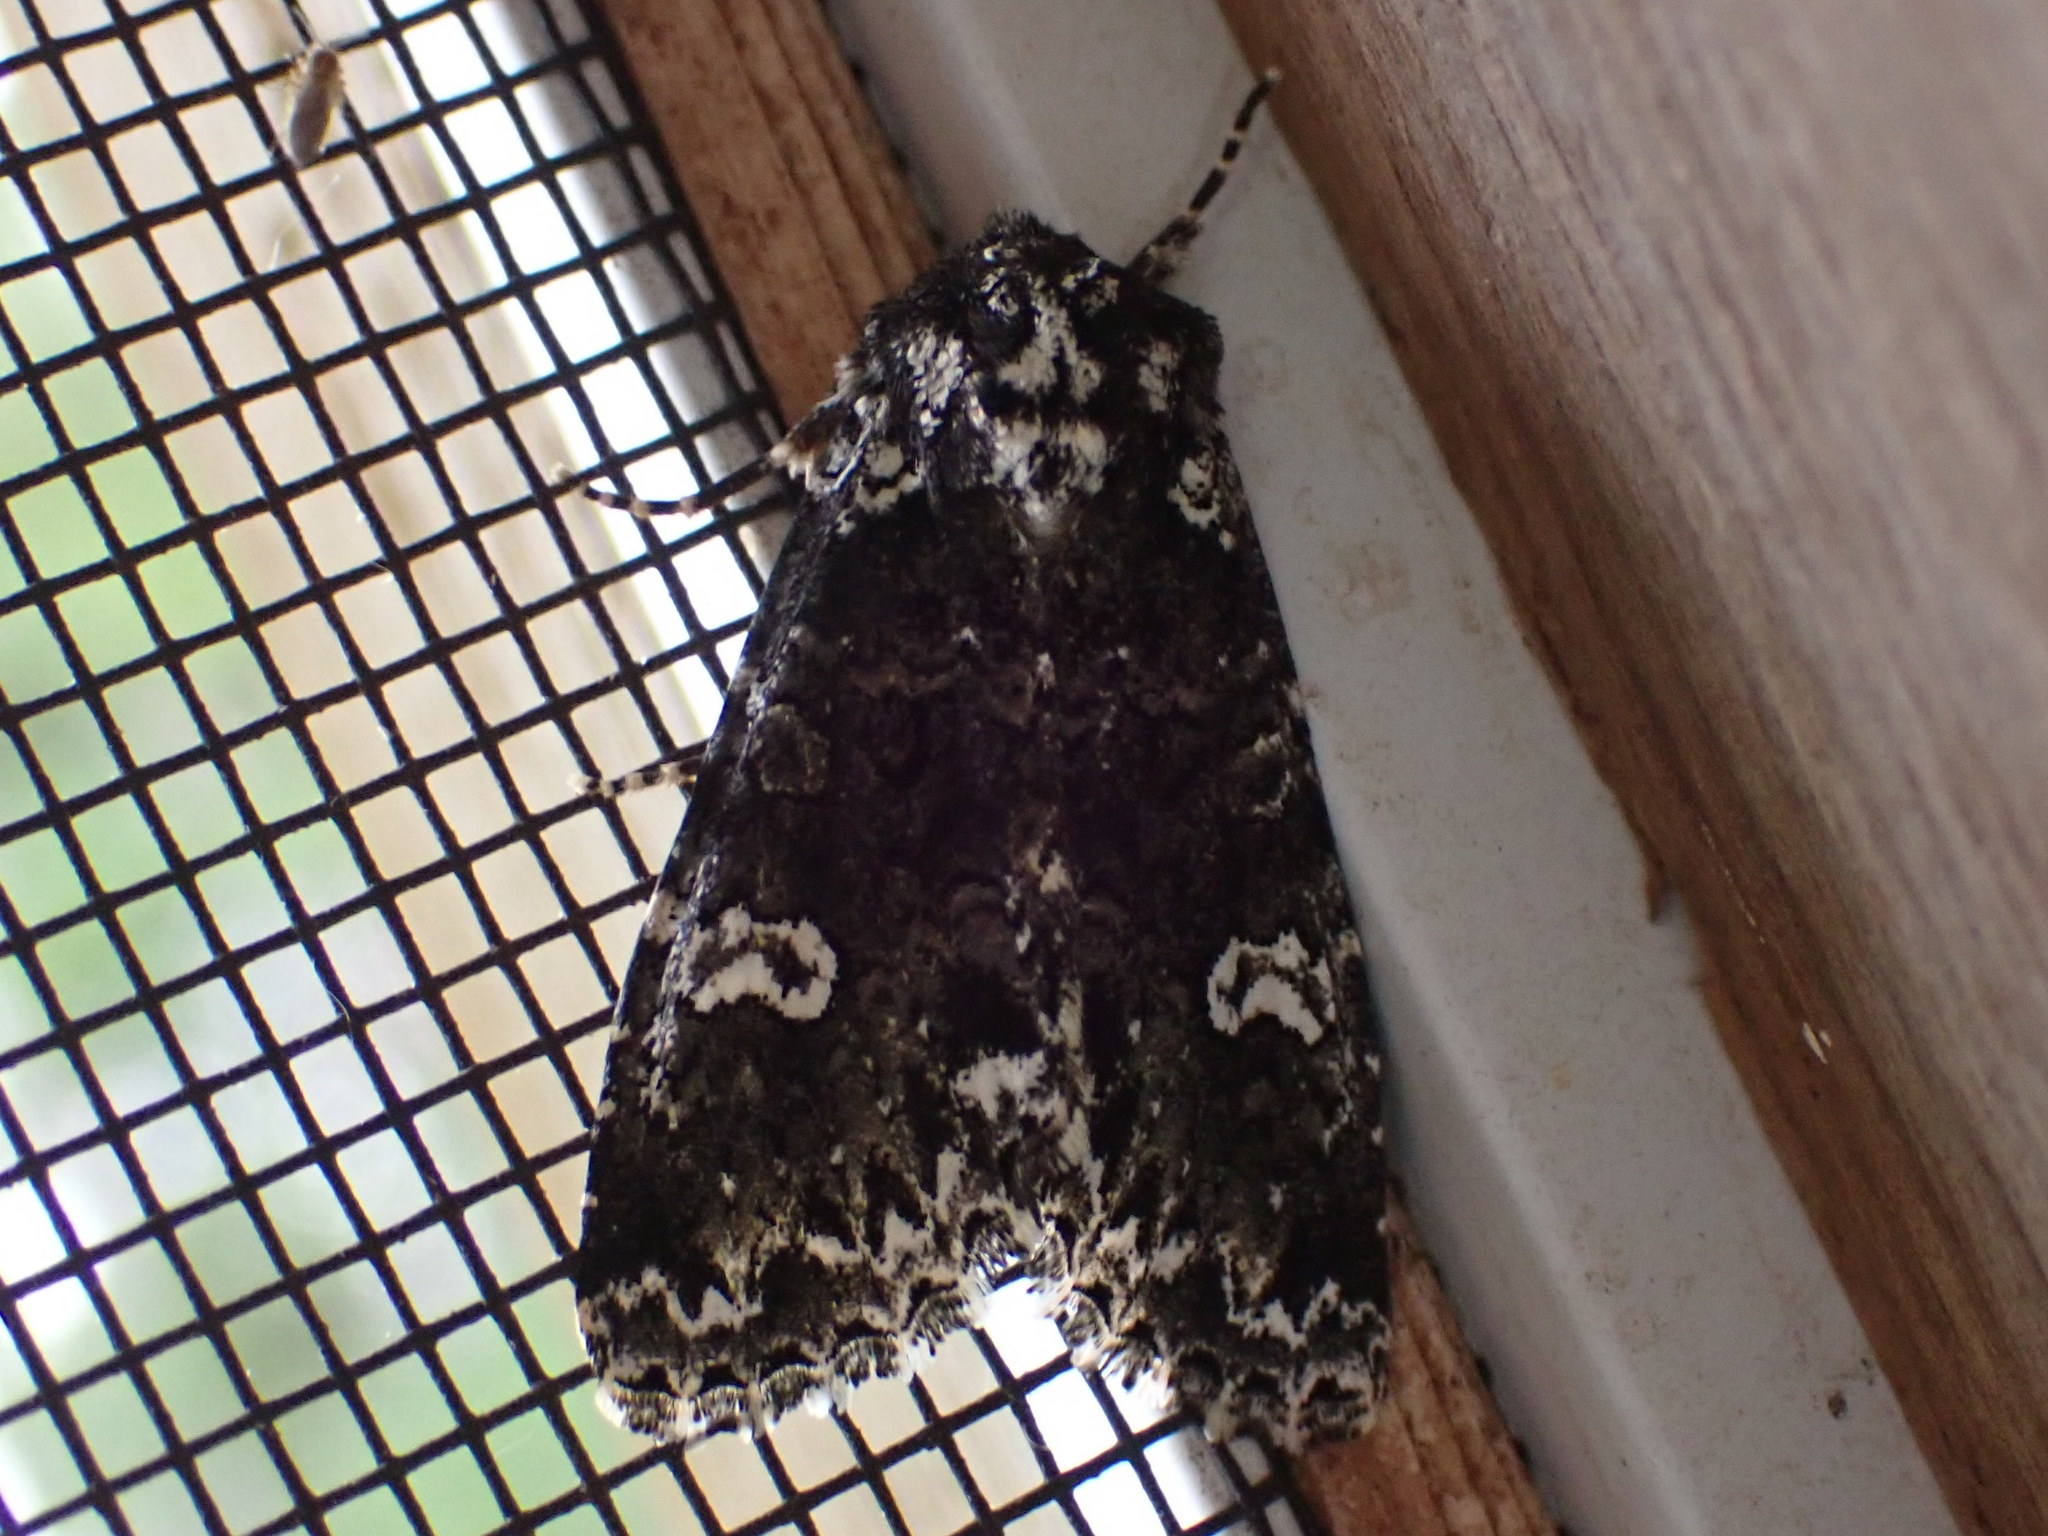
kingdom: Animalia
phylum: Arthropoda
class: Insecta
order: Lepidoptera
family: Noctuidae
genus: Melanchra
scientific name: Melanchra adjuncta
